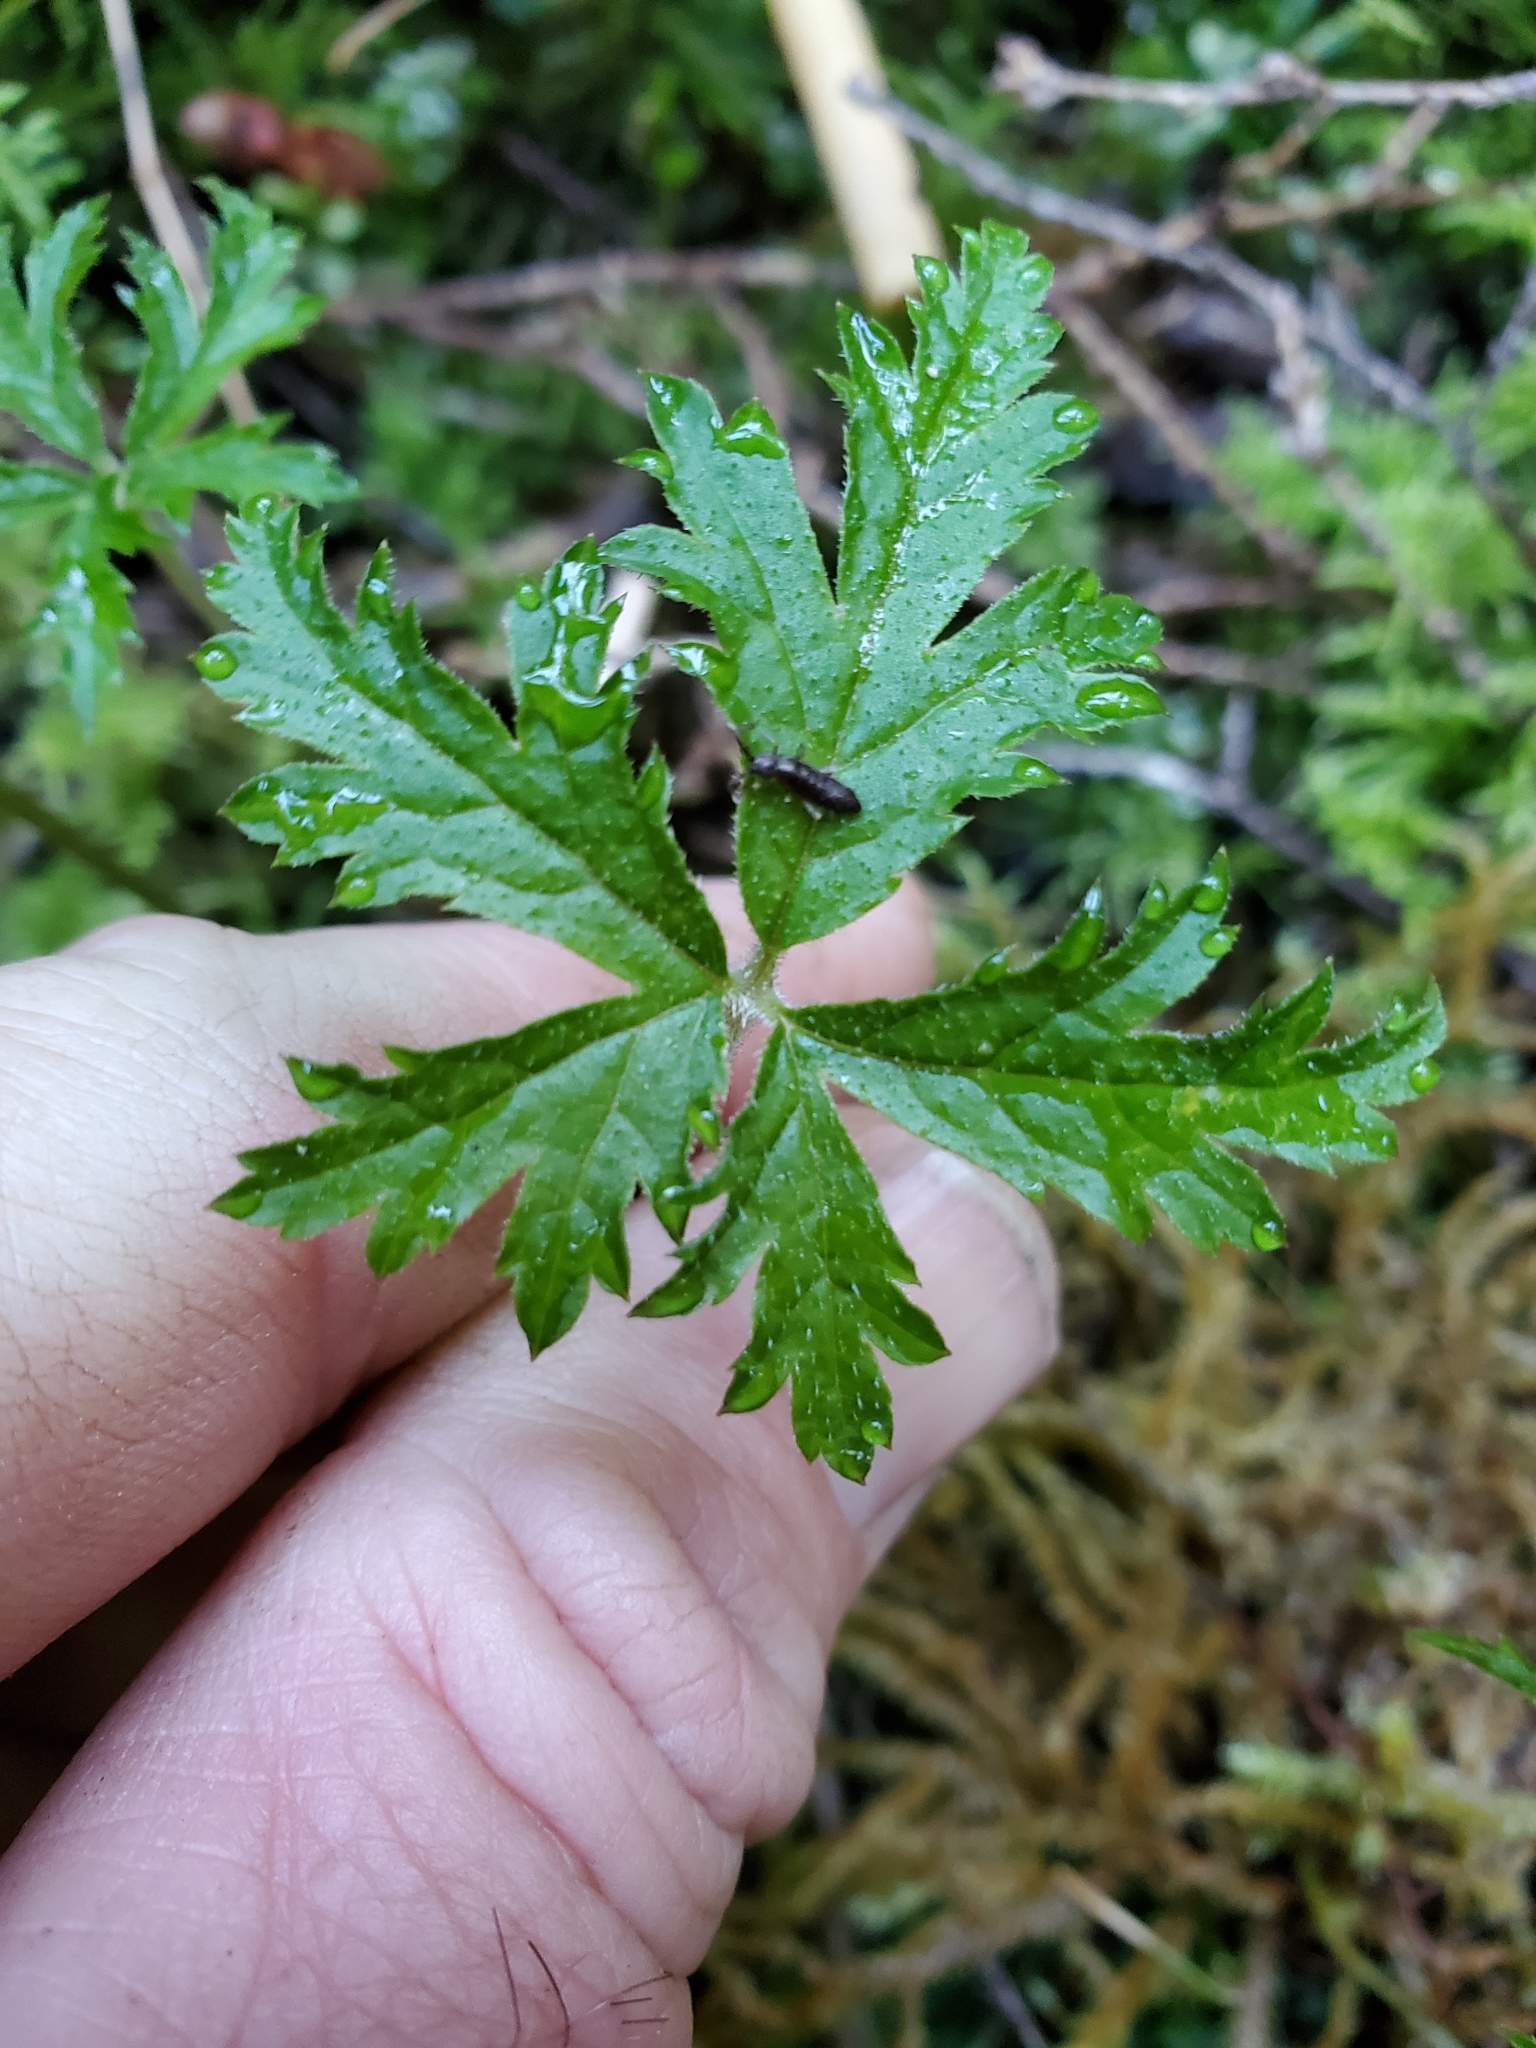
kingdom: Plantae
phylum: Tracheophyta
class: Magnoliopsida
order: Saxifragales
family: Saxifragaceae
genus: Tiarella
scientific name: Tiarella trifoliata
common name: Sugar-scoop
